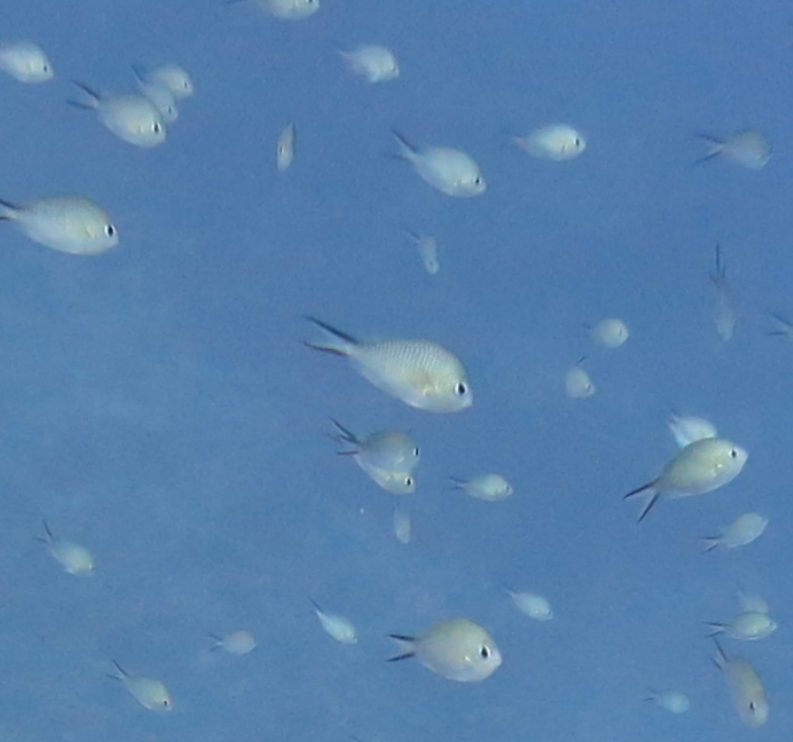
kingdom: Animalia
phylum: Chordata
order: Perciformes
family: Pomacentridae
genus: Chromis
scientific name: Chromis ternatensis
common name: Ternate chromis
